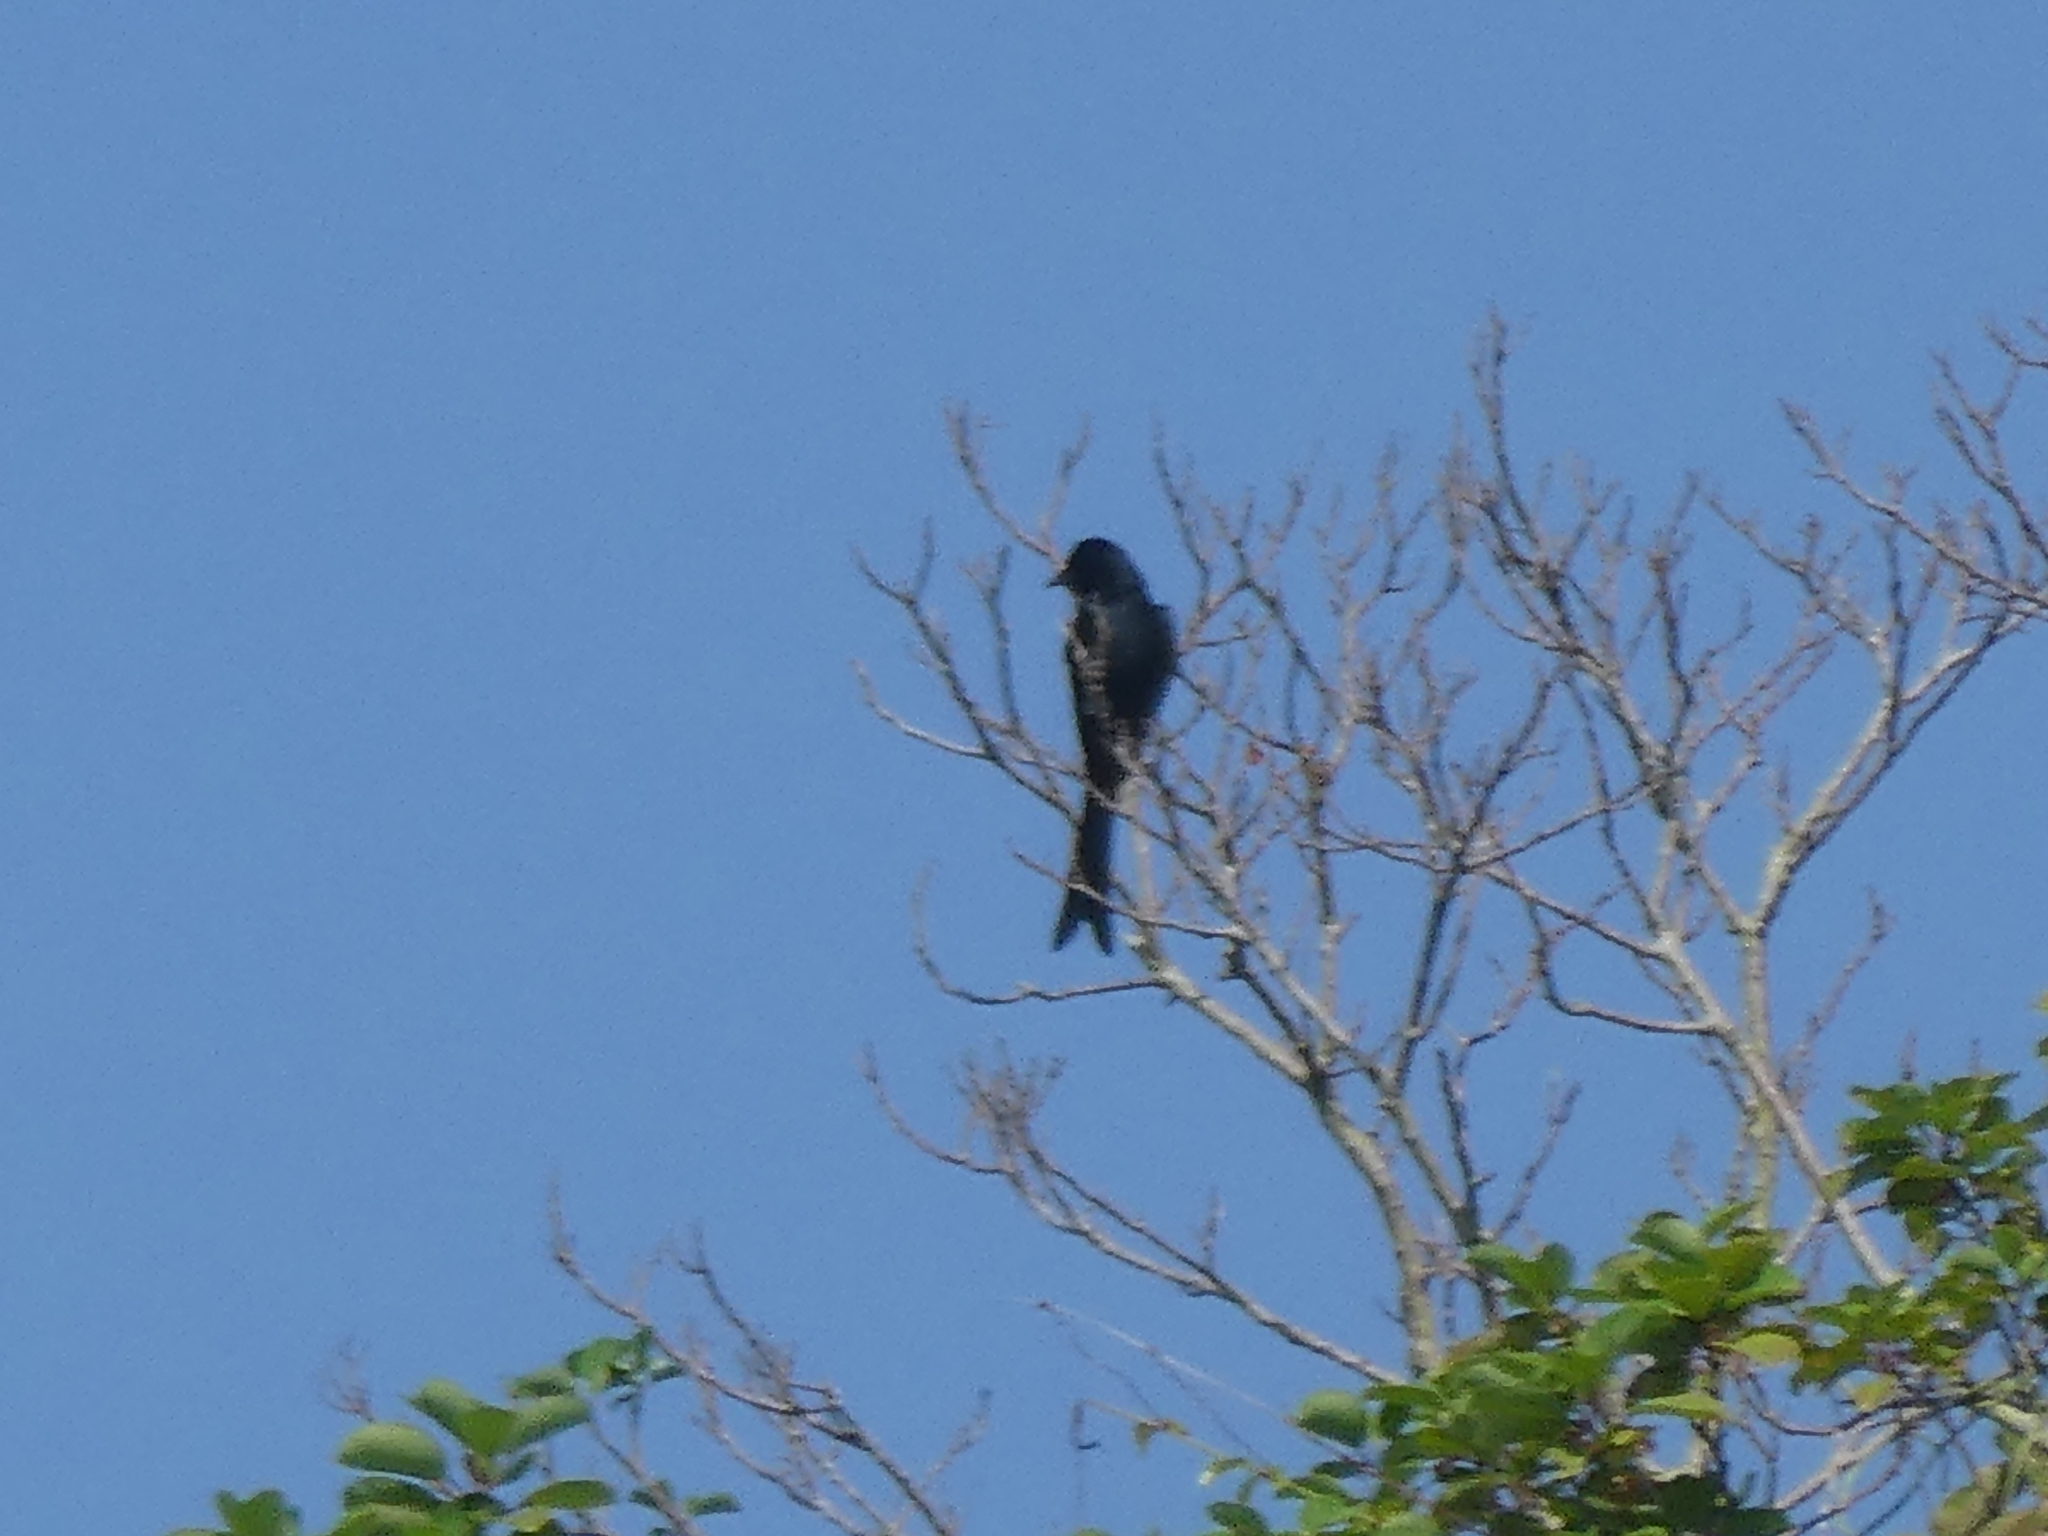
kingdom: Animalia
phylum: Chordata
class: Aves
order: Passeriformes
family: Dicruridae
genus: Dicrurus
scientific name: Dicrurus macrocercus
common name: Black drongo
